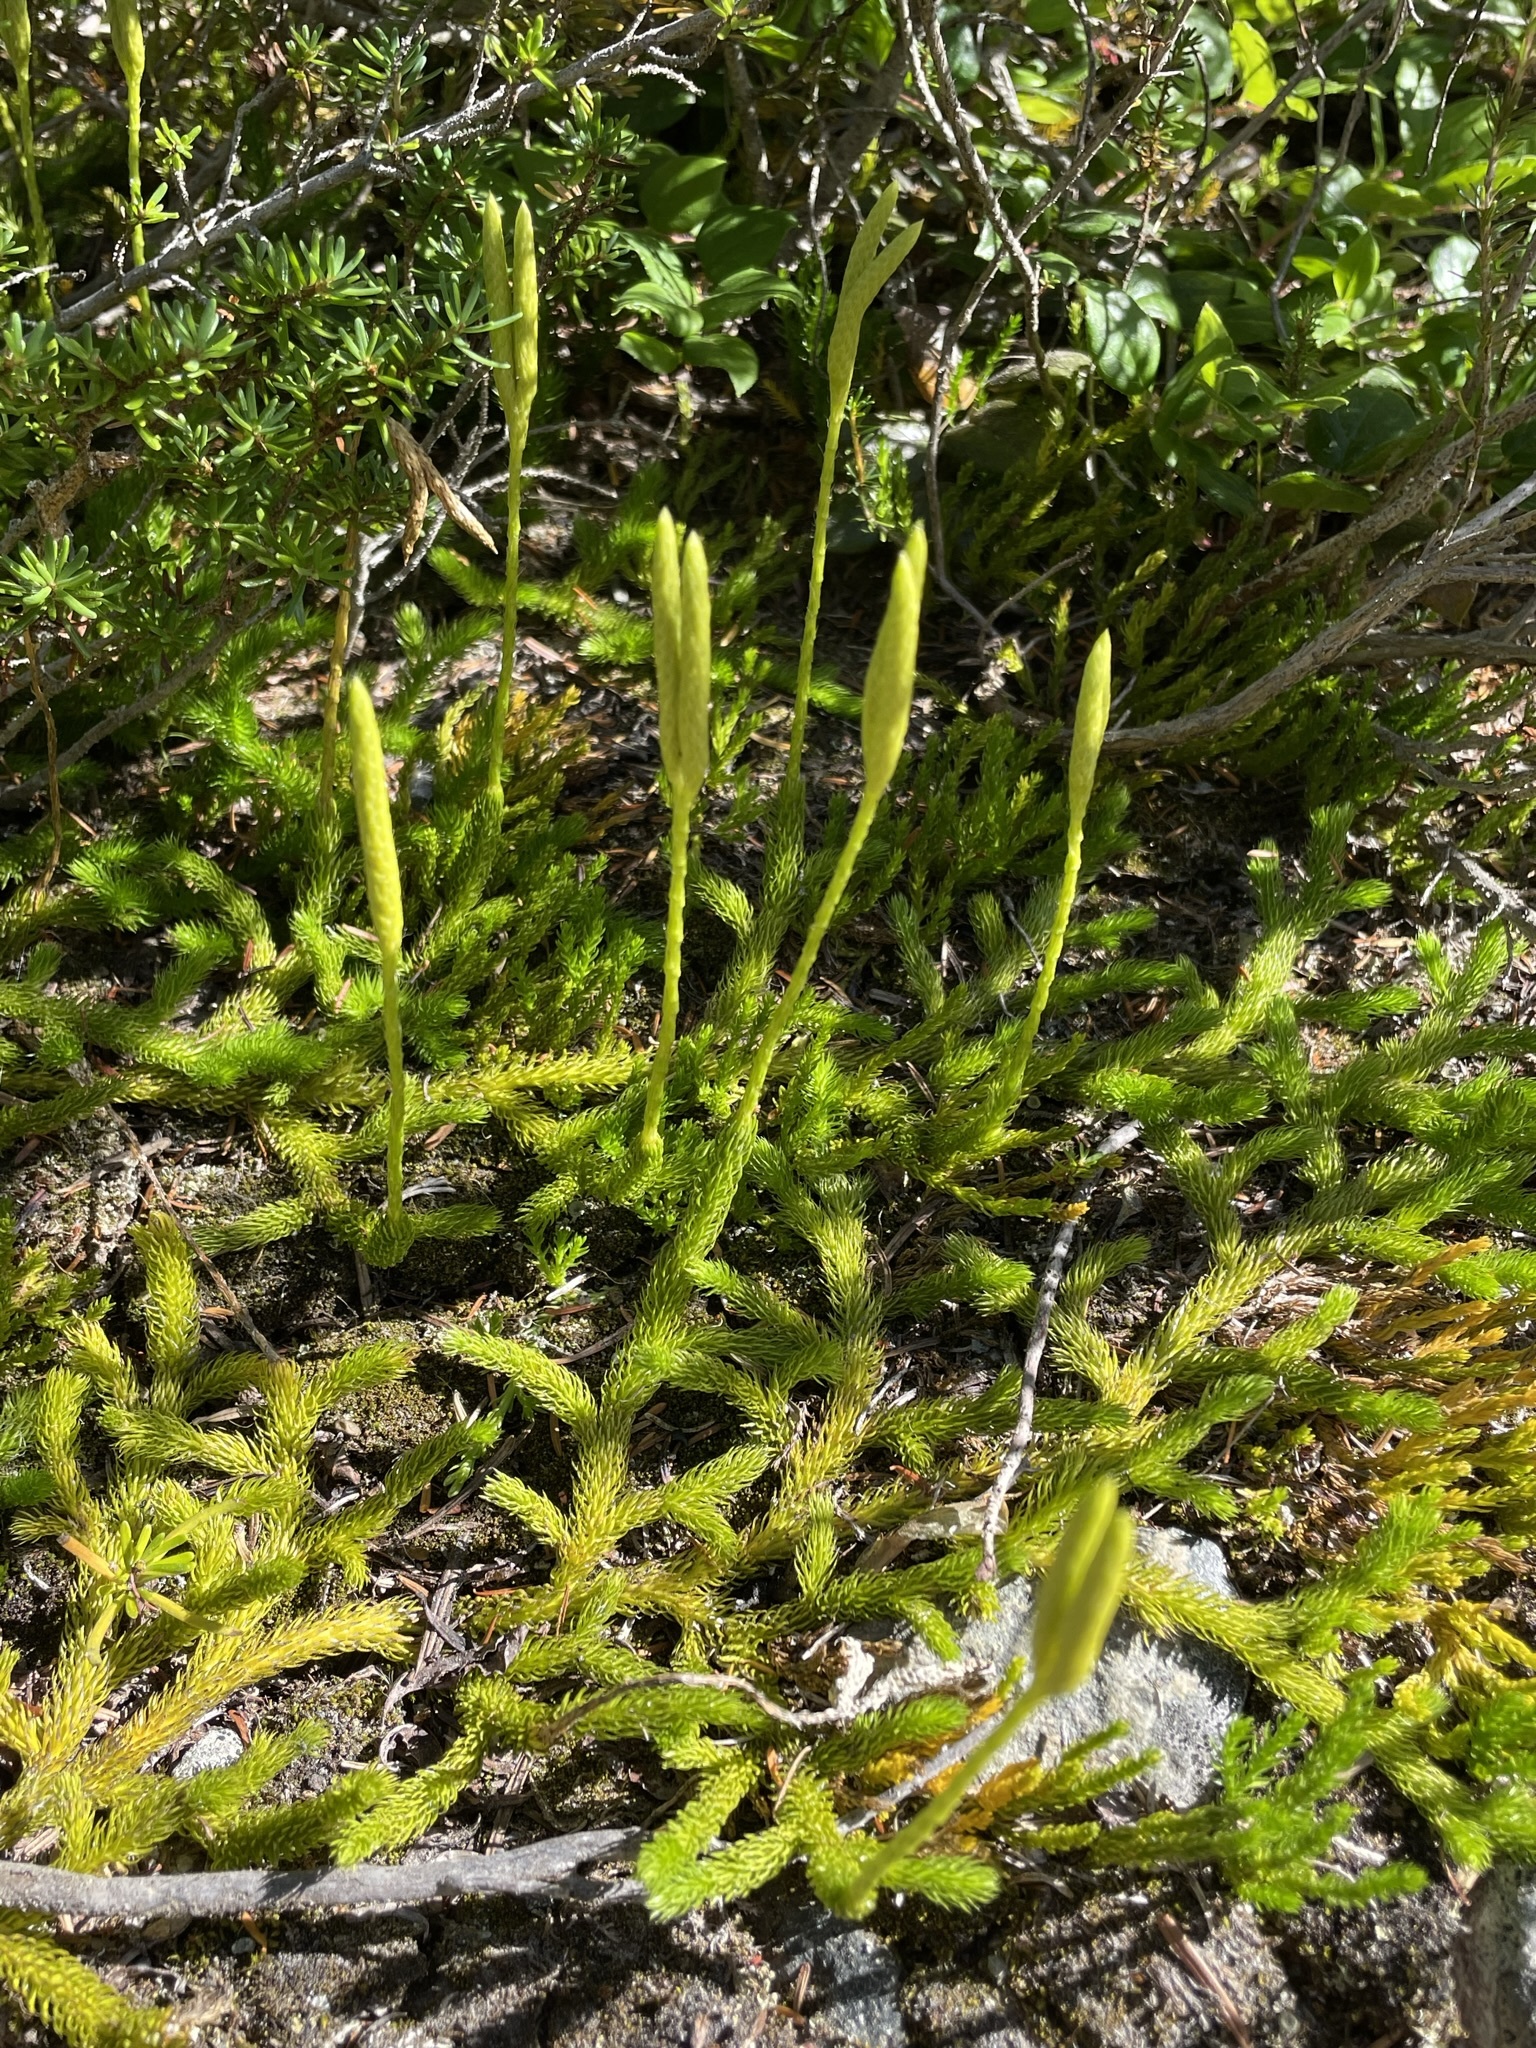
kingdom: Plantae
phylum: Tracheophyta
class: Lycopodiopsida
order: Lycopodiales
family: Lycopodiaceae
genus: Lycopodium
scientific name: Lycopodium clavatum
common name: Stag's-horn clubmoss
